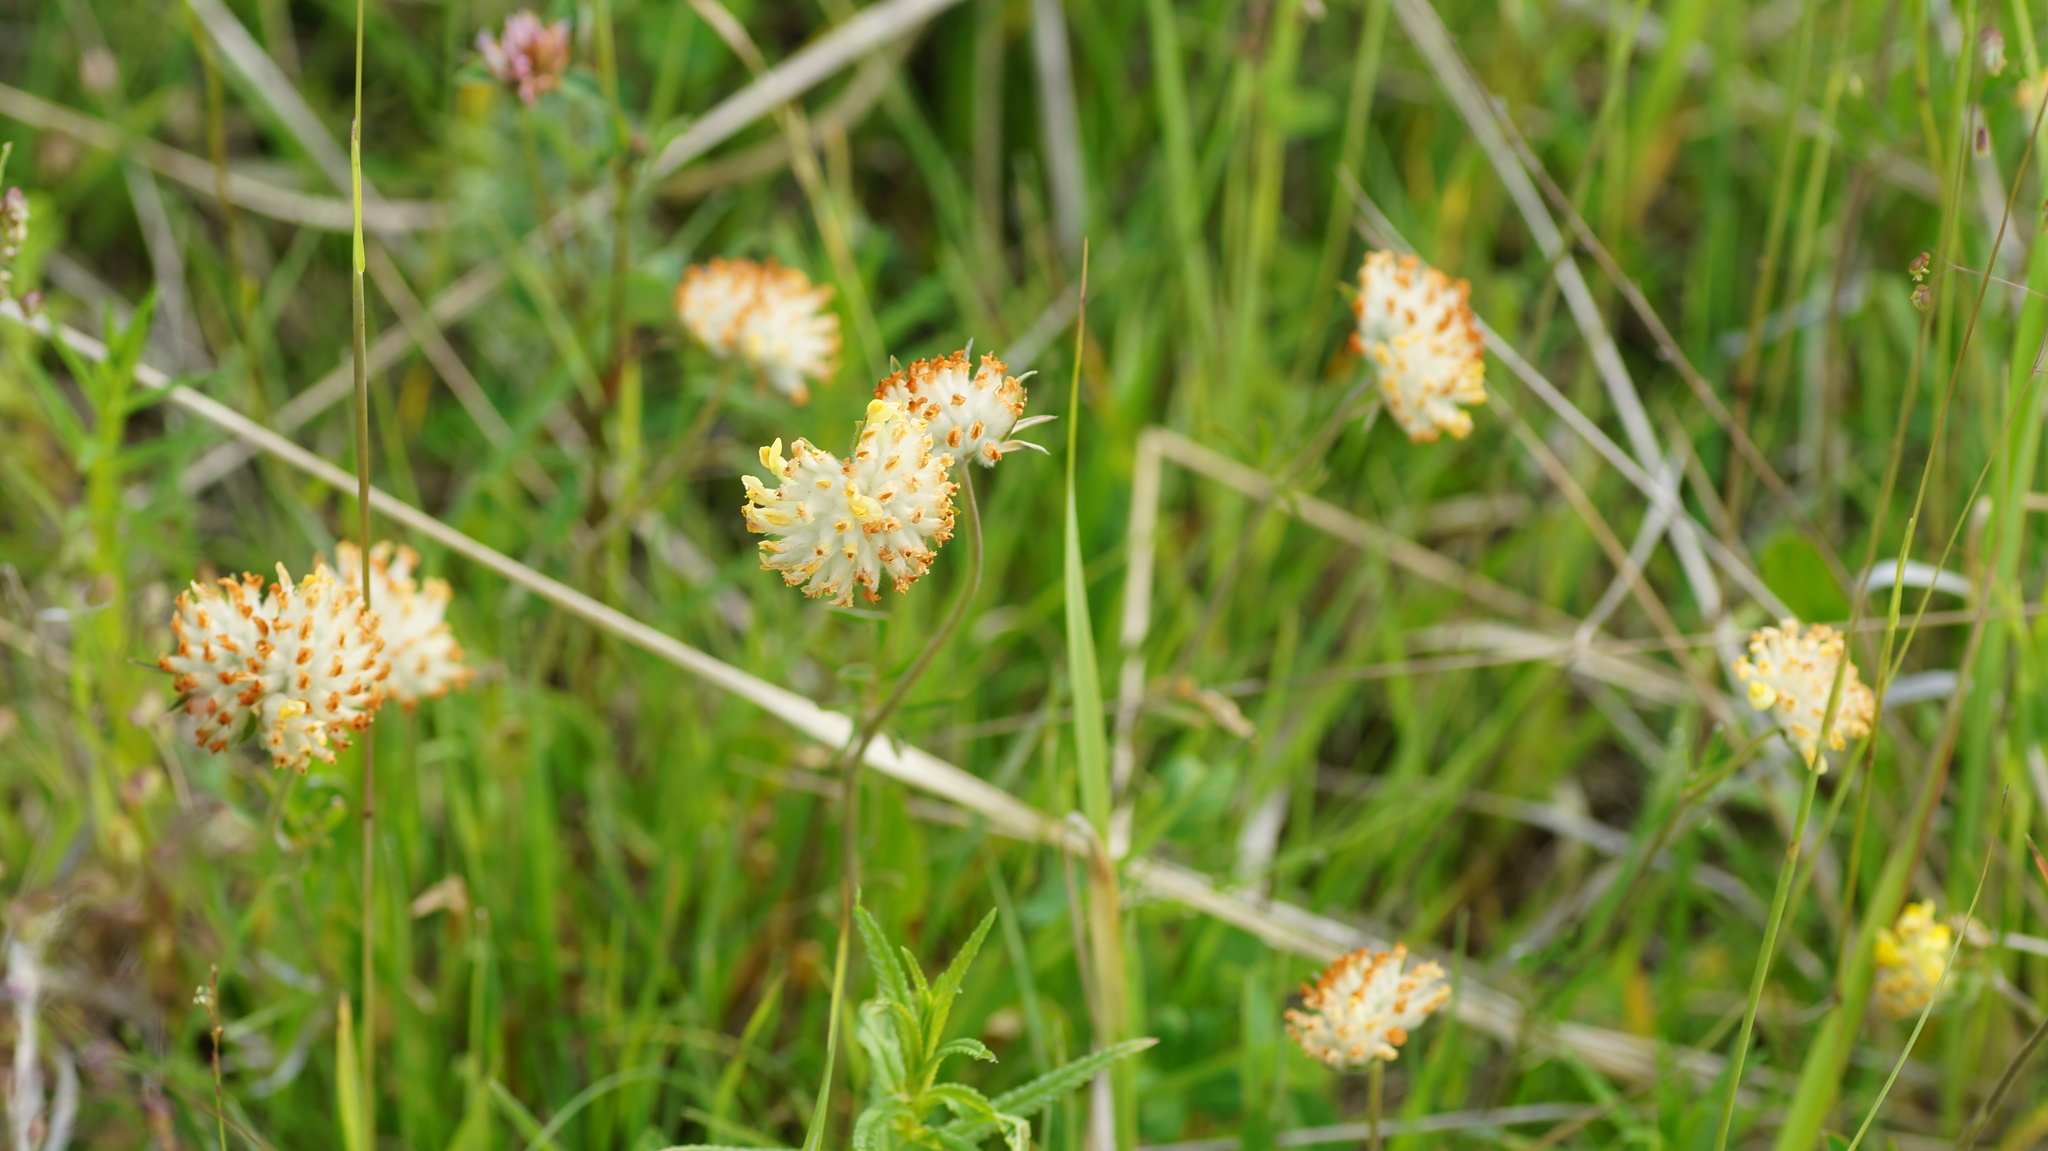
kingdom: Plantae
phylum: Tracheophyta
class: Magnoliopsida
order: Fabales
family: Fabaceae
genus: Anthyllis
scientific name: Anthyllis vulneraria
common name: Kidney vetch
